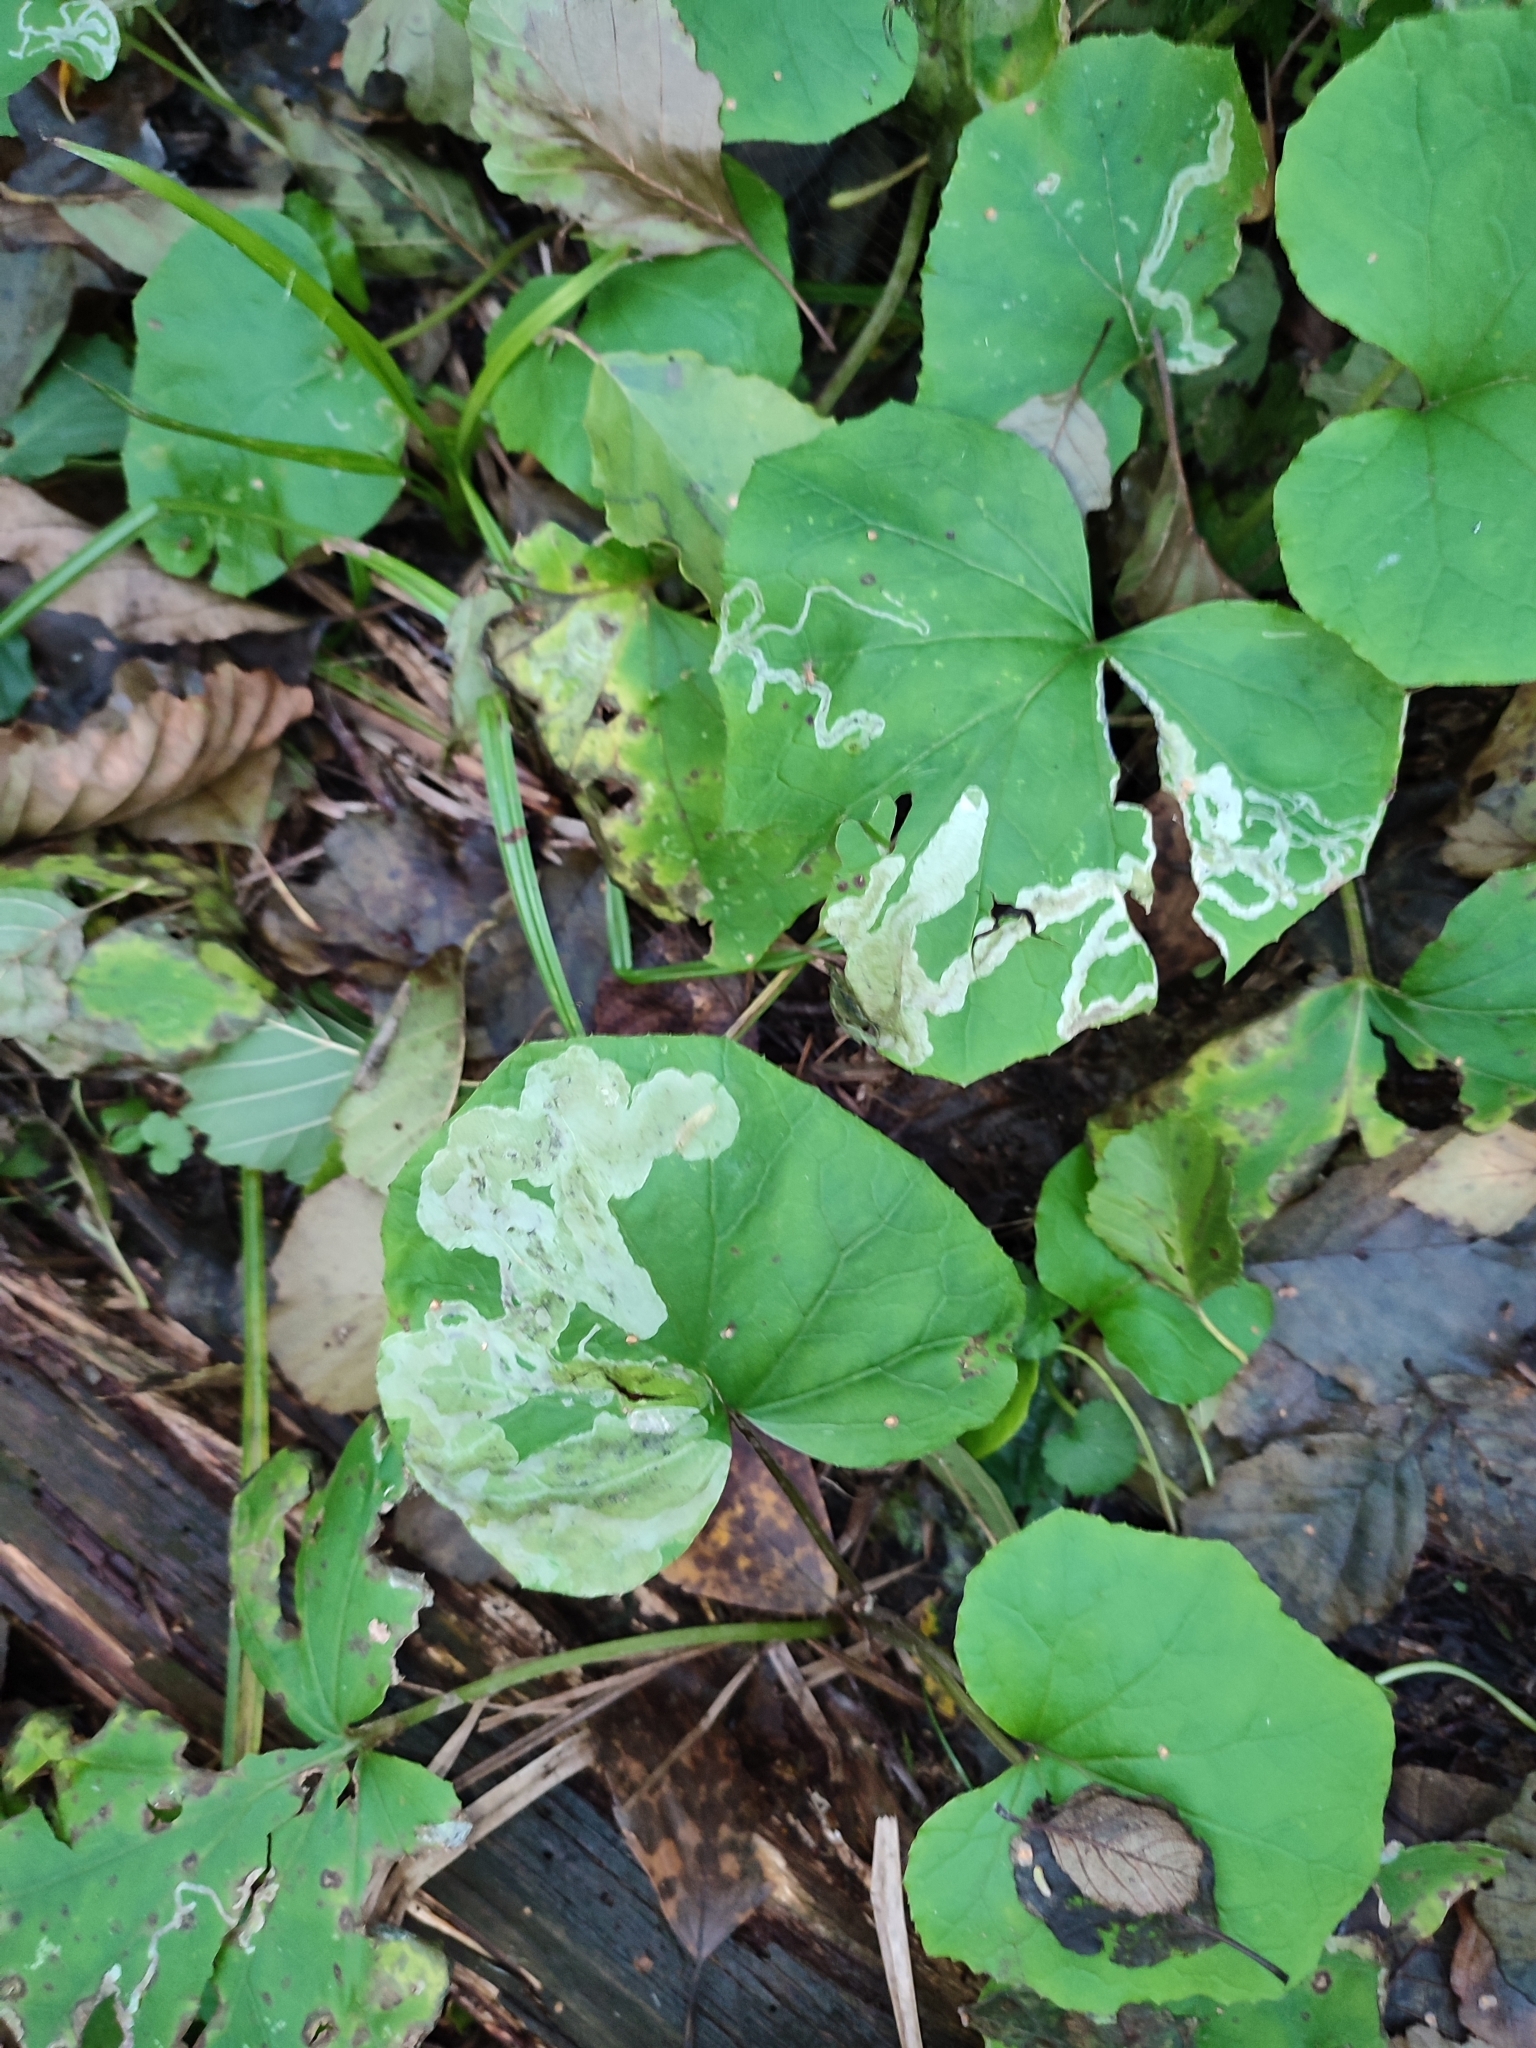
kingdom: Plantae
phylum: Tracheophyta
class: Magnoliopsida
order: Asterales
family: Asteraceae
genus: Tussilago
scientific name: Tussilago farfara
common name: Coltsfoot
